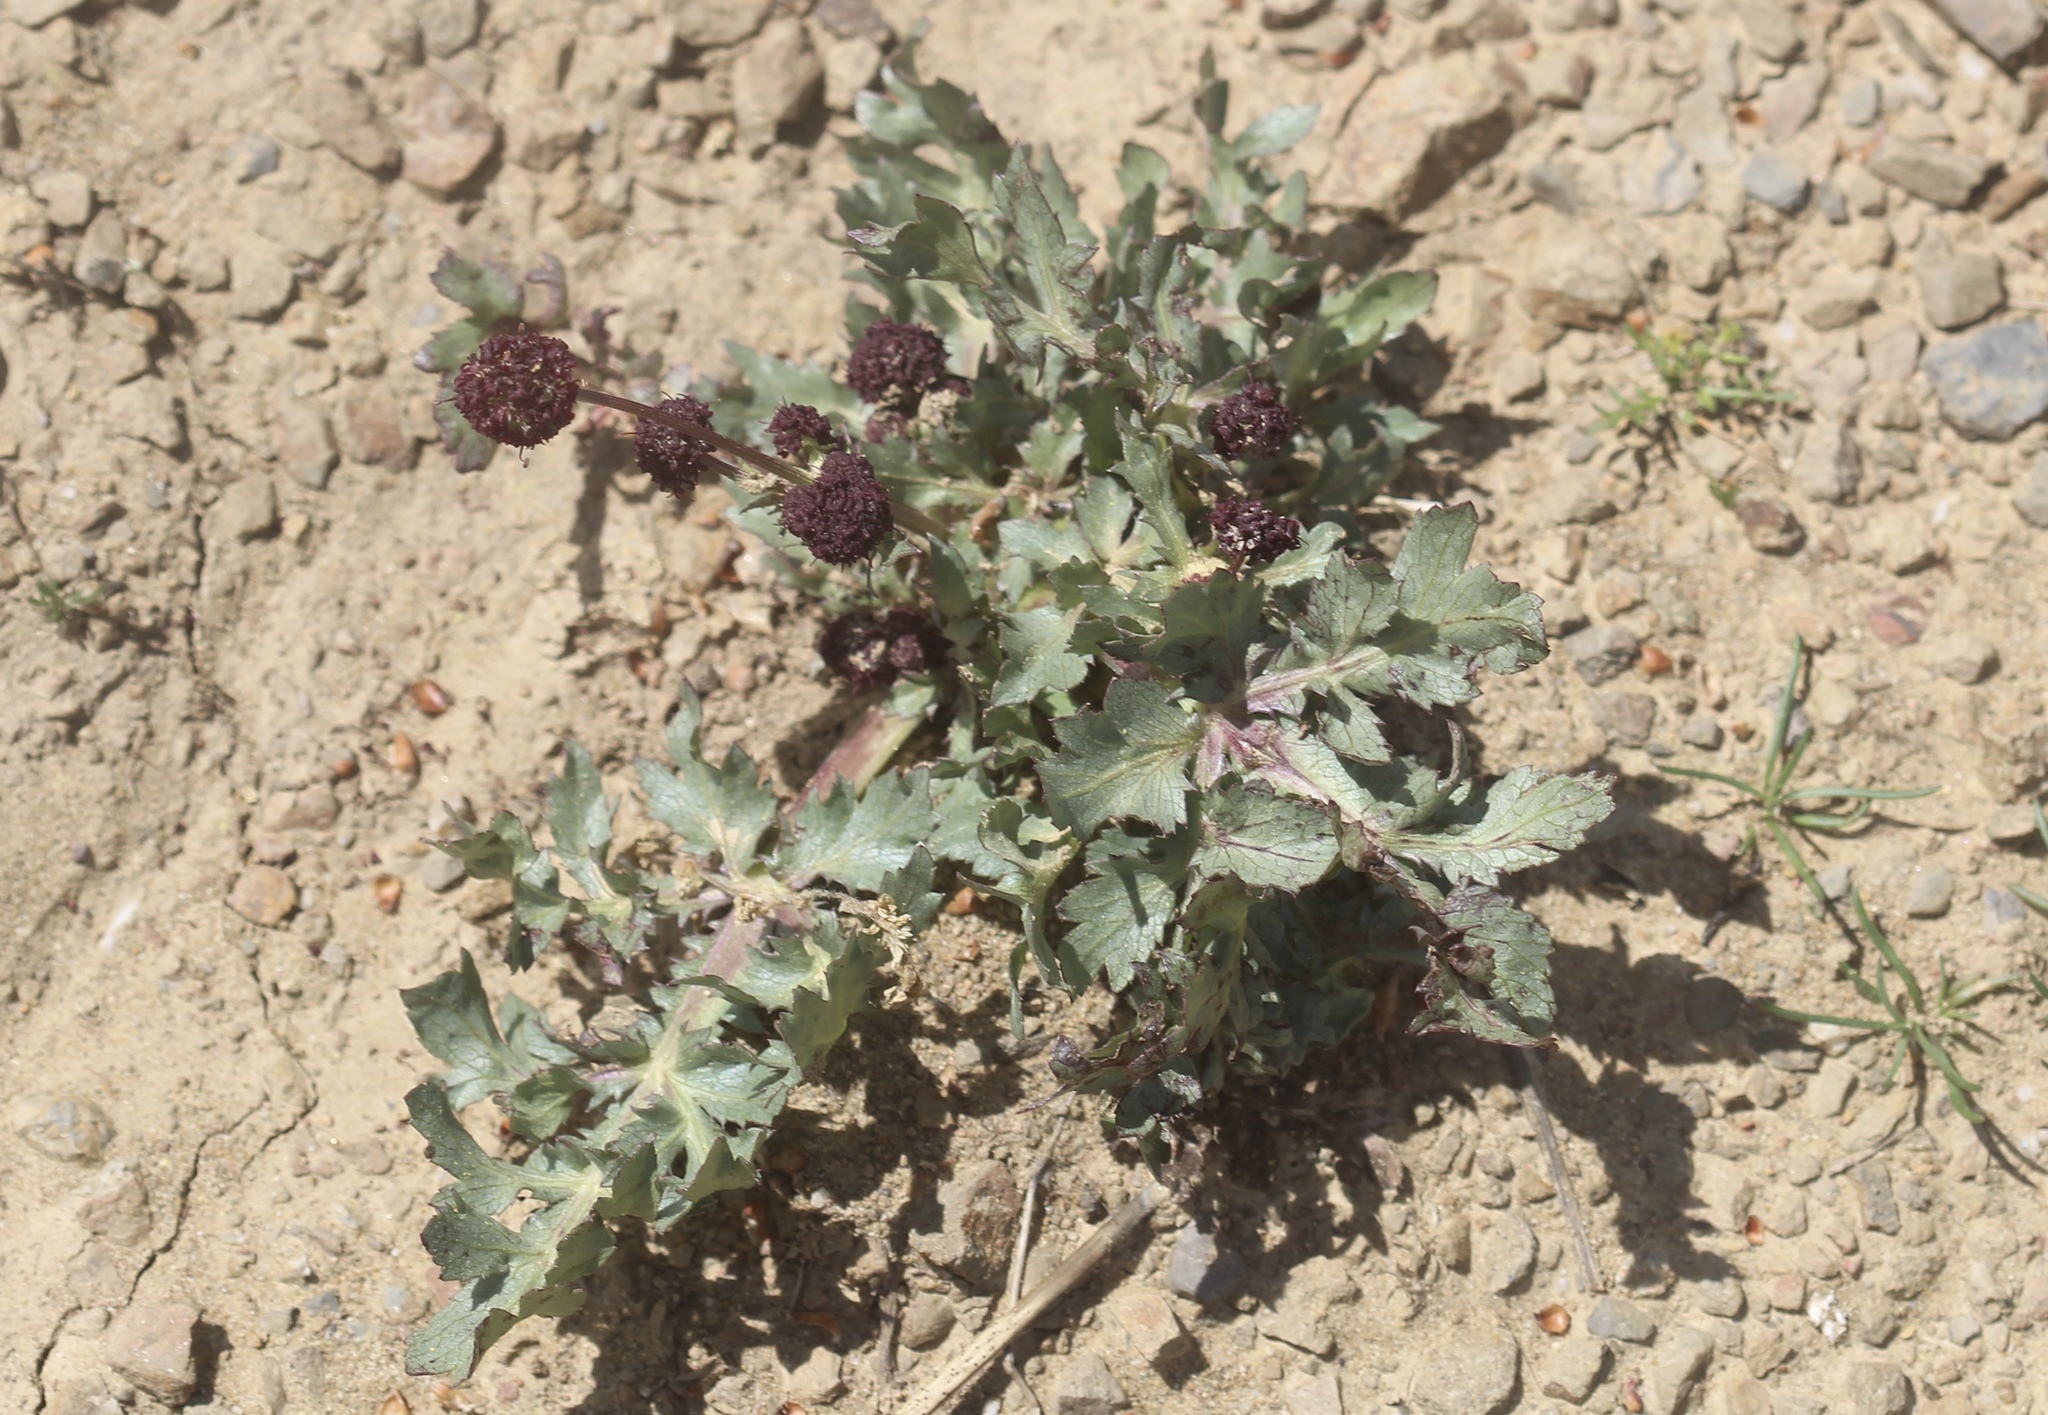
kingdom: Plantae
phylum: Tracheophyta
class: Magnoliopsida
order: Apiales
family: Apiaceae
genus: Sanicula
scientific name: Sanicula bipinnatifida
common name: Shoe-buttons
